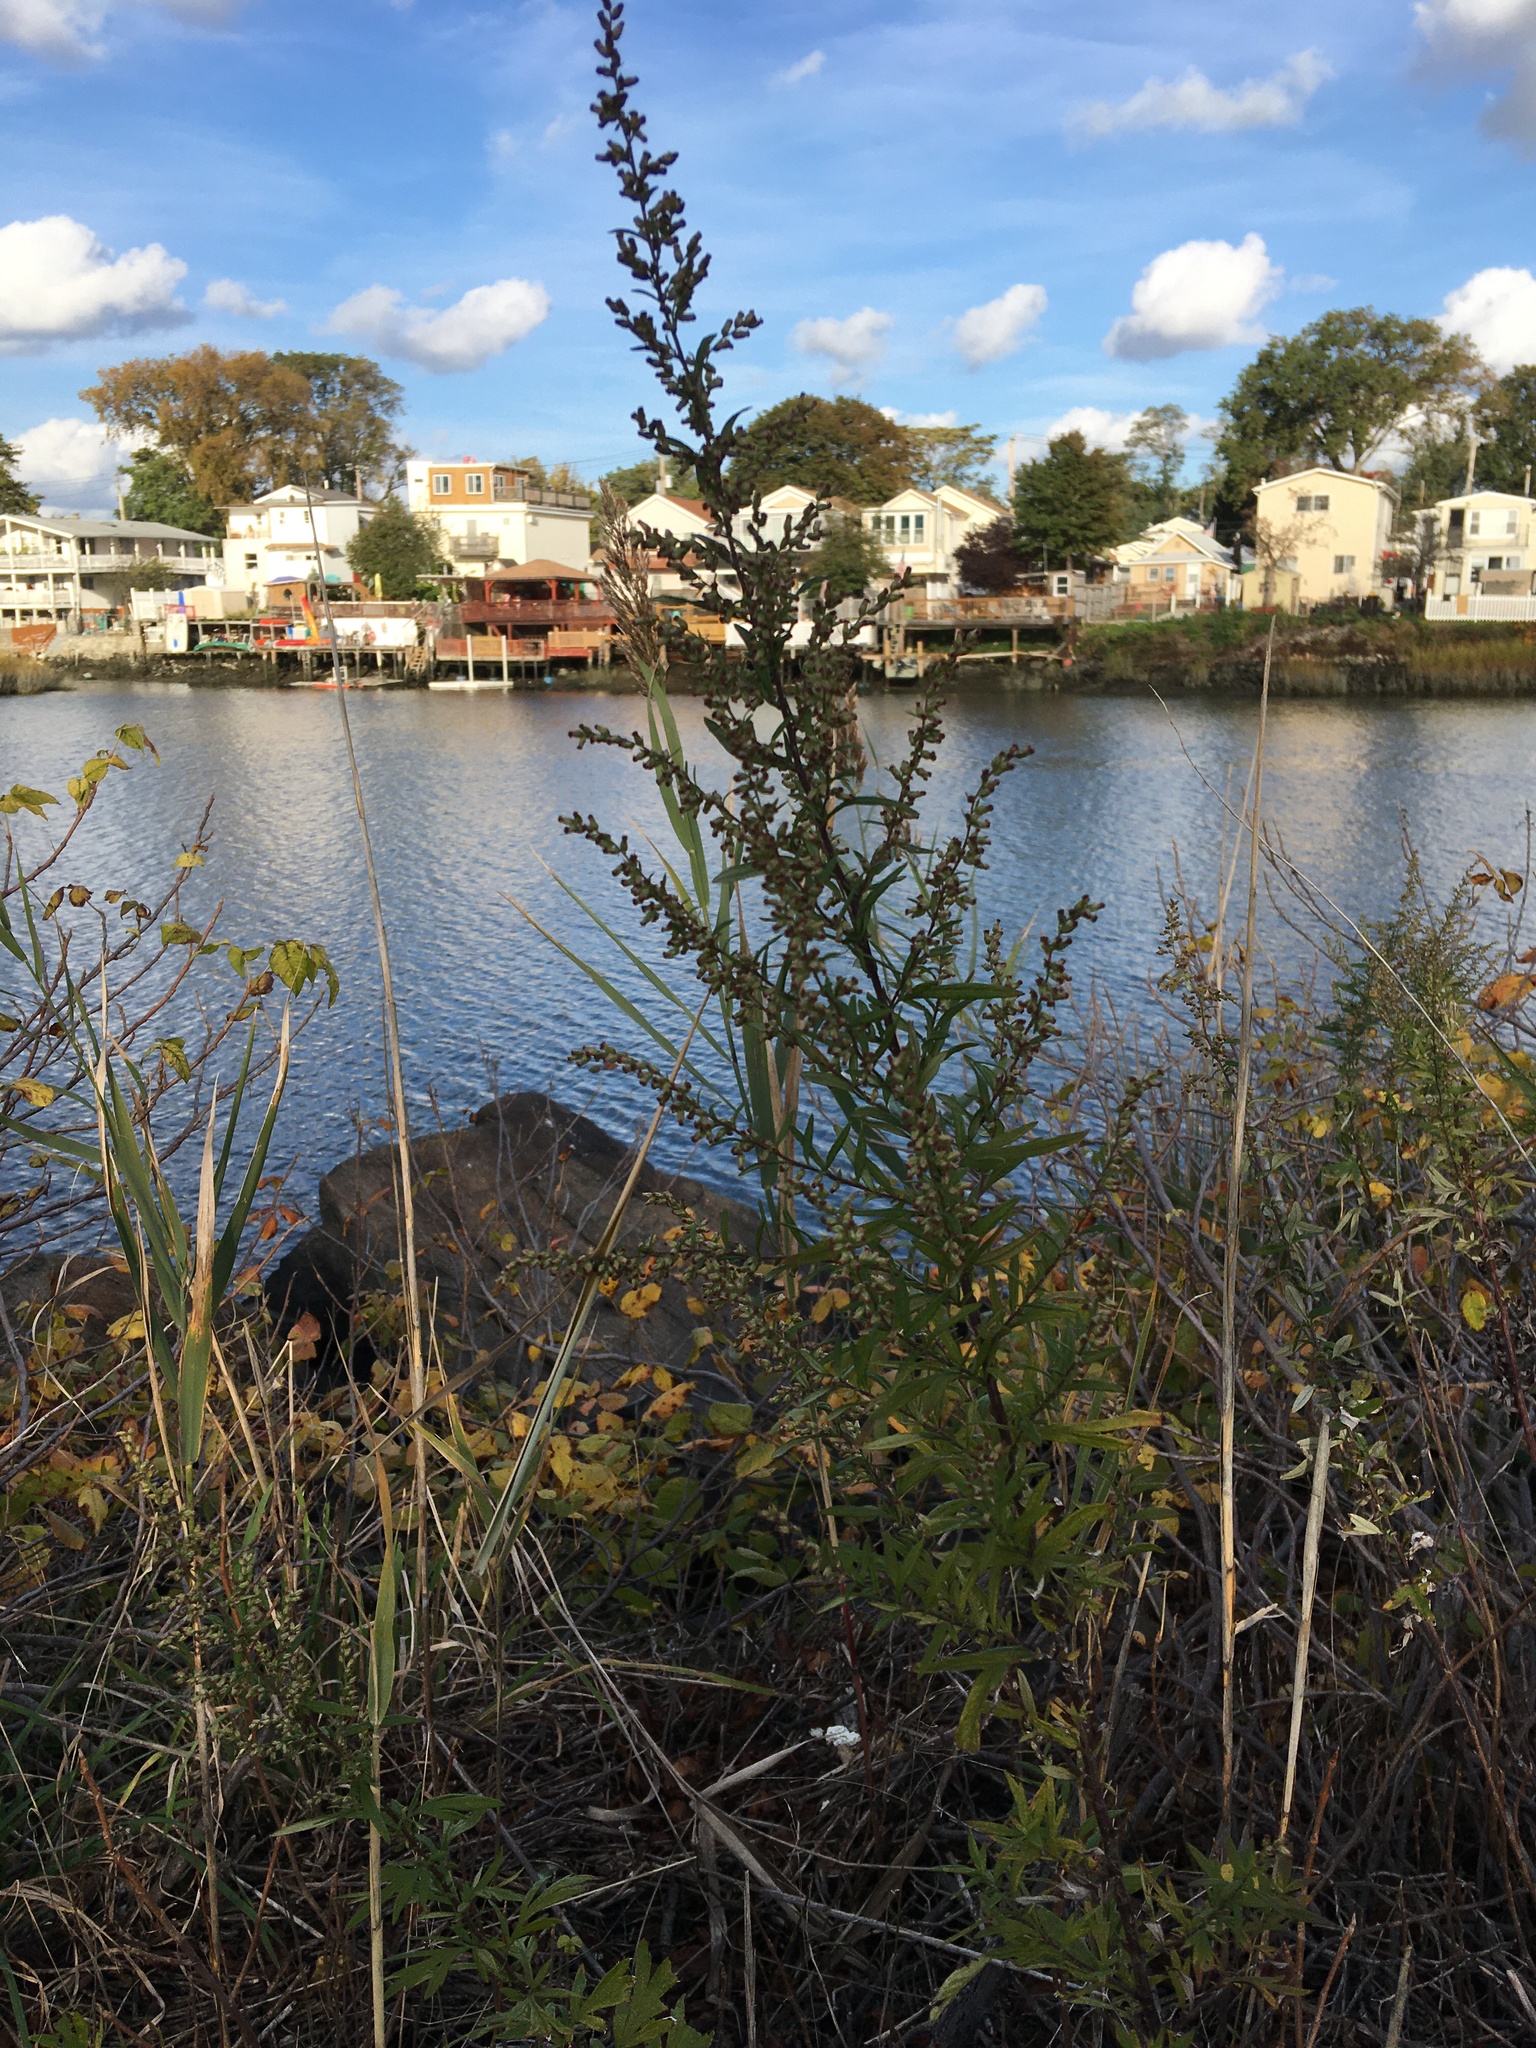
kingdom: Plantae
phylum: Tracheophyta
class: Magnoliopsida
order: Asterales
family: Asteraceae
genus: Artemisia
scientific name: Artemisia vulgaris
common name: Mugwort
